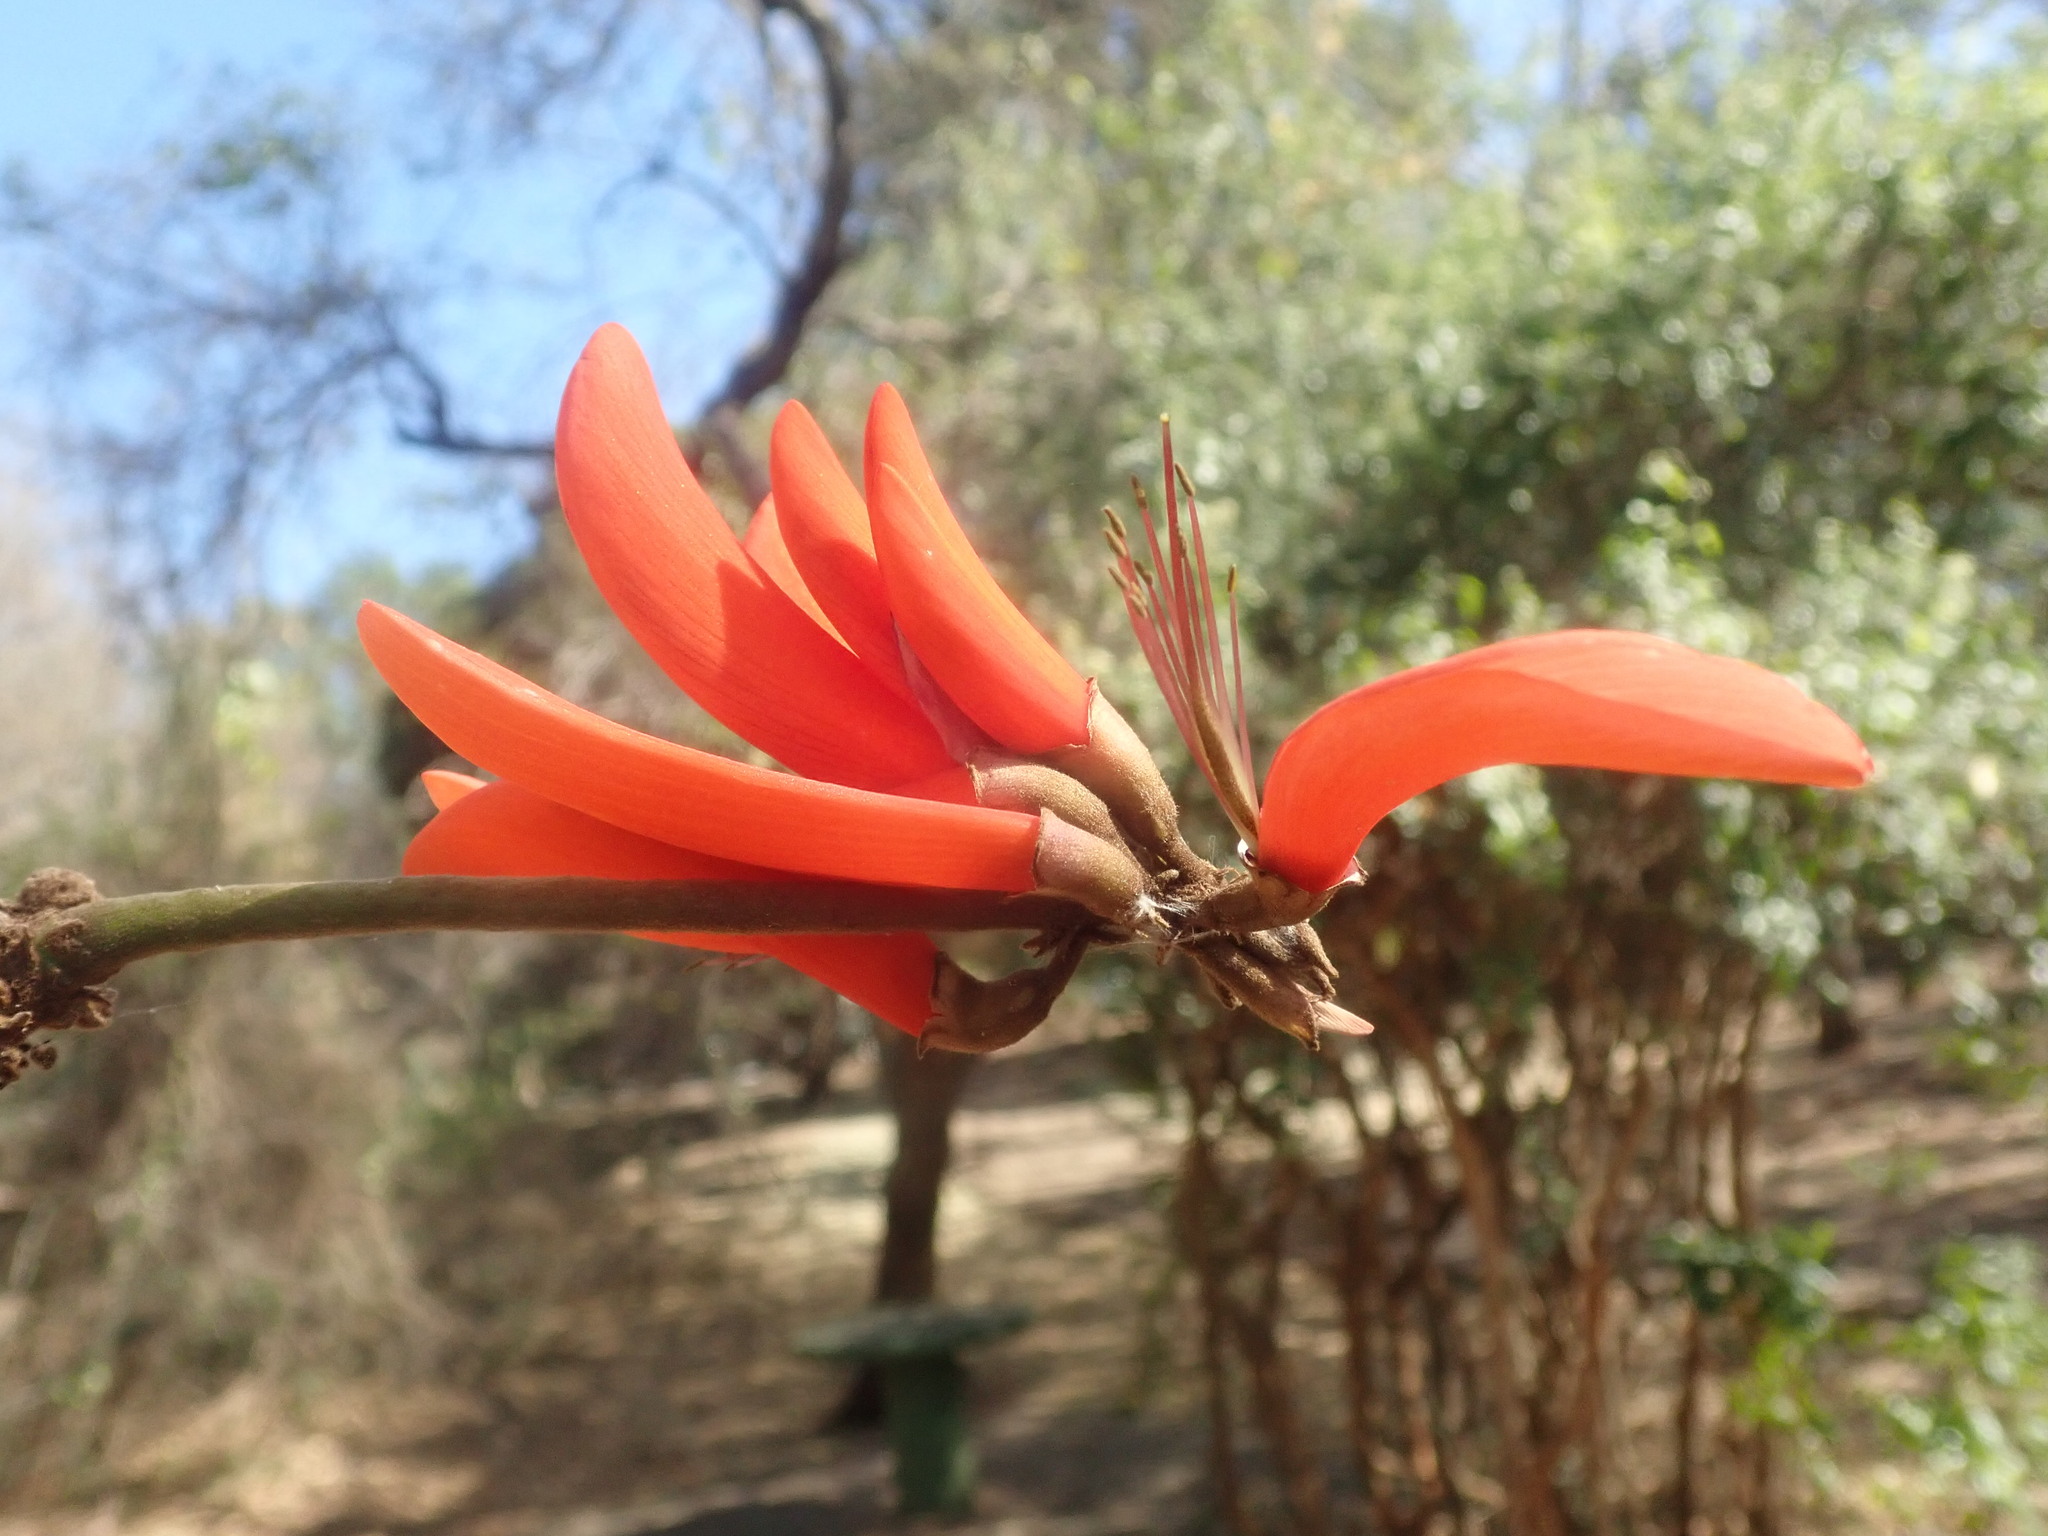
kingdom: Plantae
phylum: Tracheophyta
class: Magnoliopsida
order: Fabales
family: Fabaceae
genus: Erythrina
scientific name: Erythrina lysistemon
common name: Common coral tree
